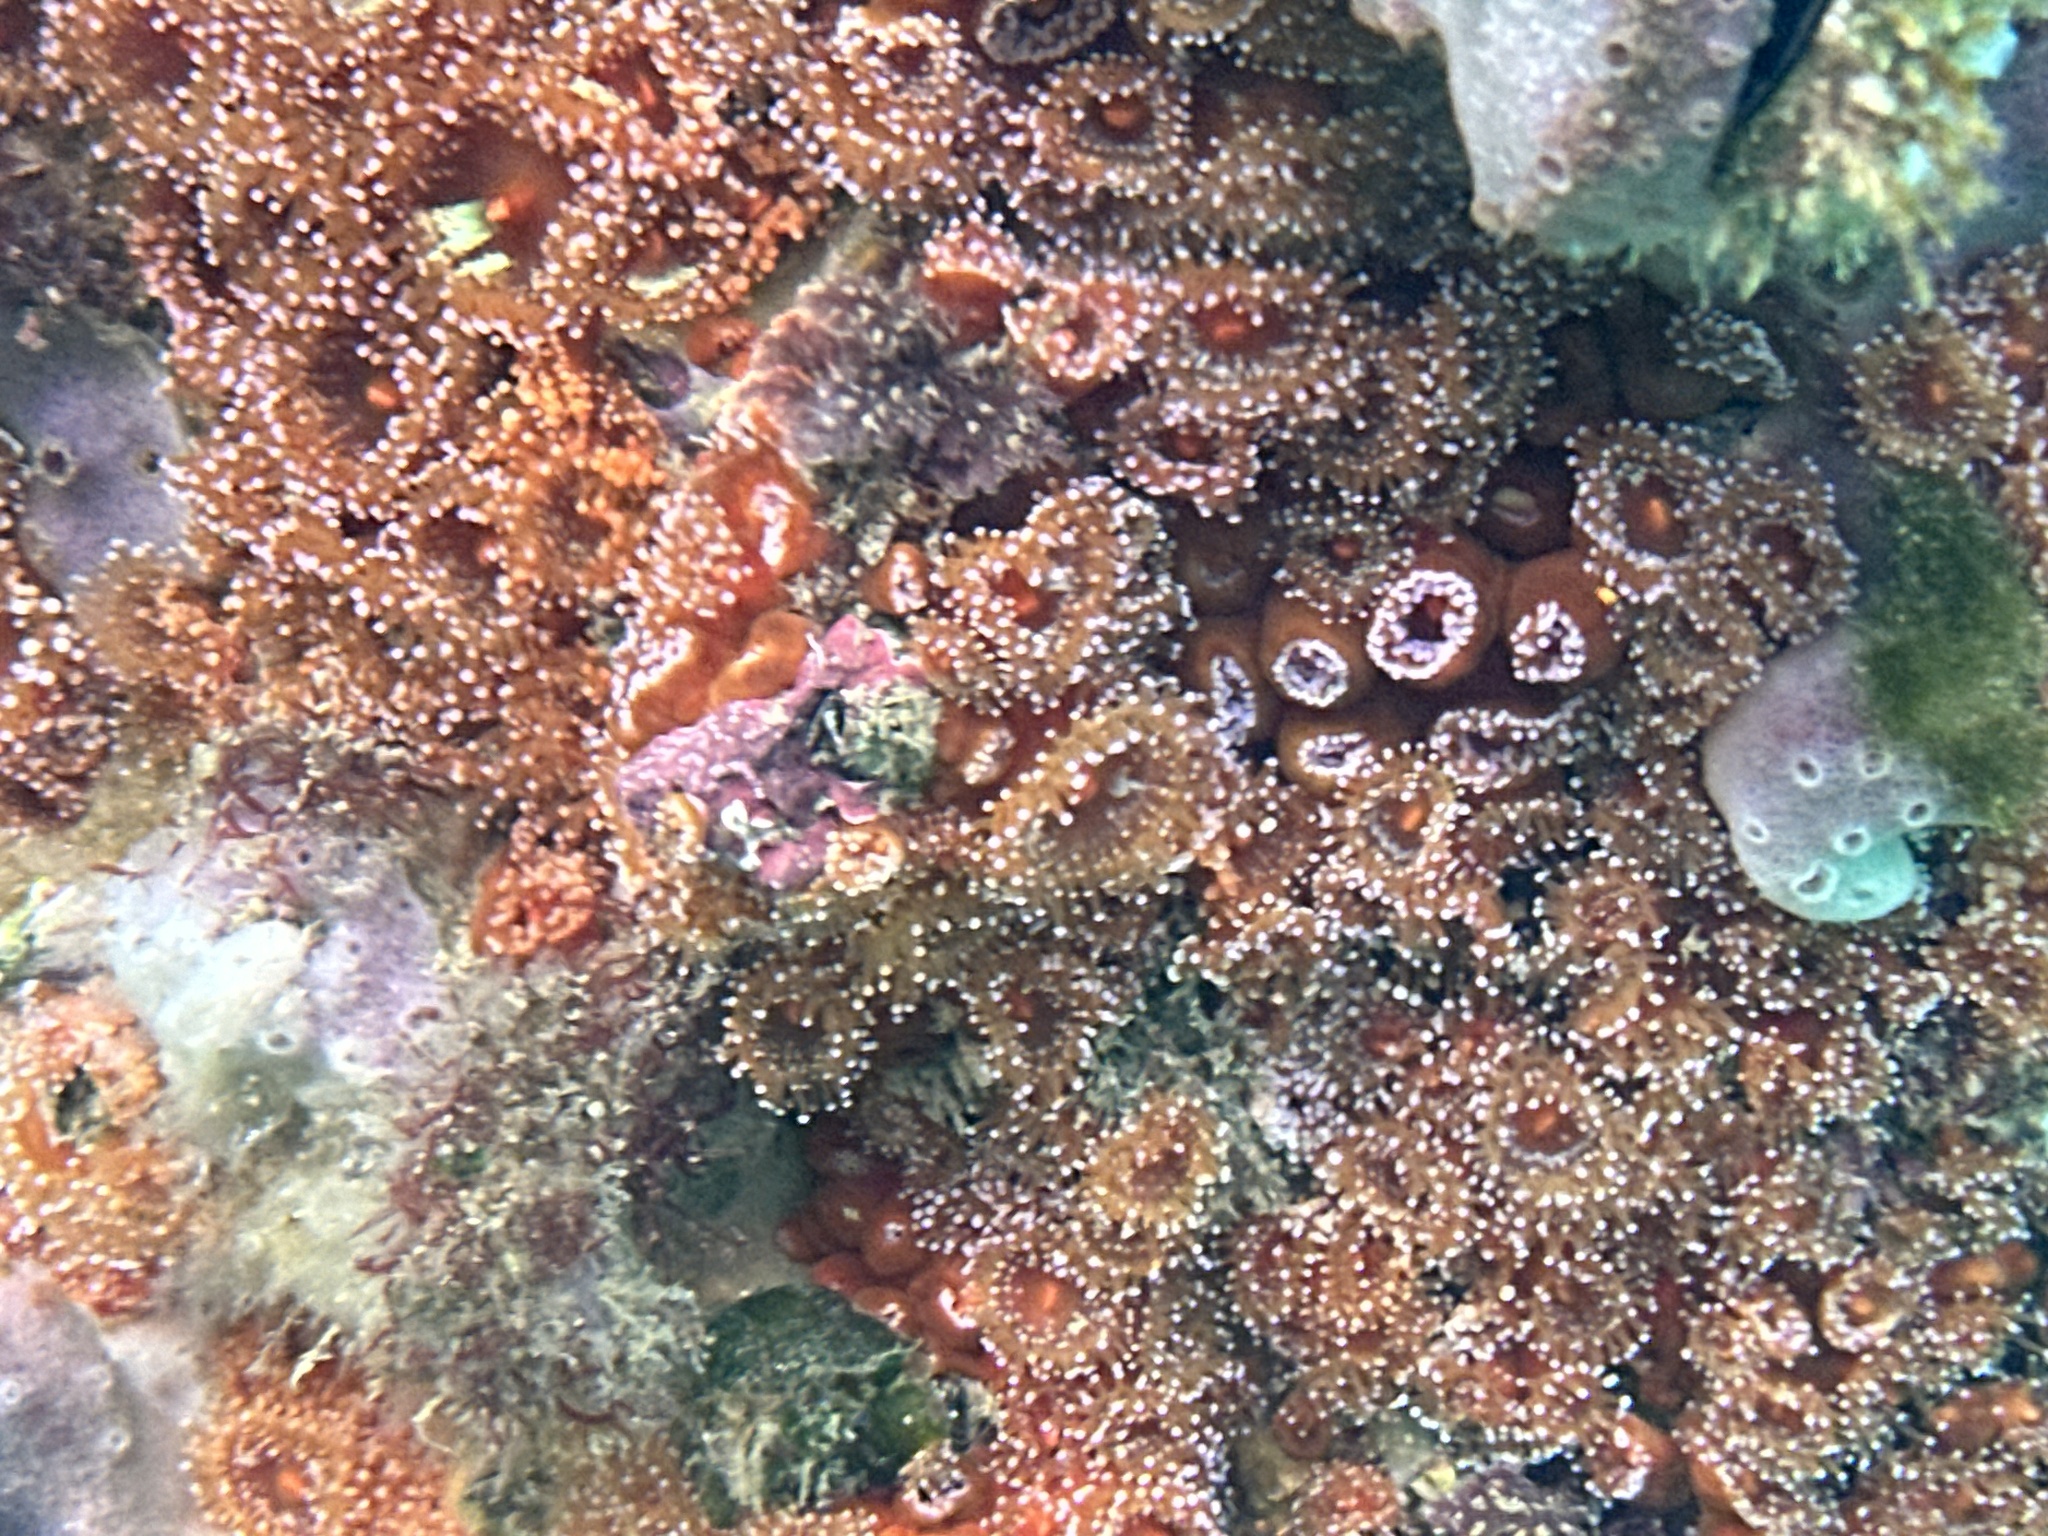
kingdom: Animalia
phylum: Cnidaria
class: Anthozoa
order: Corallimorpharia
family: Corallimorphidae
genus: Corynactis
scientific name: Corynactis australis
